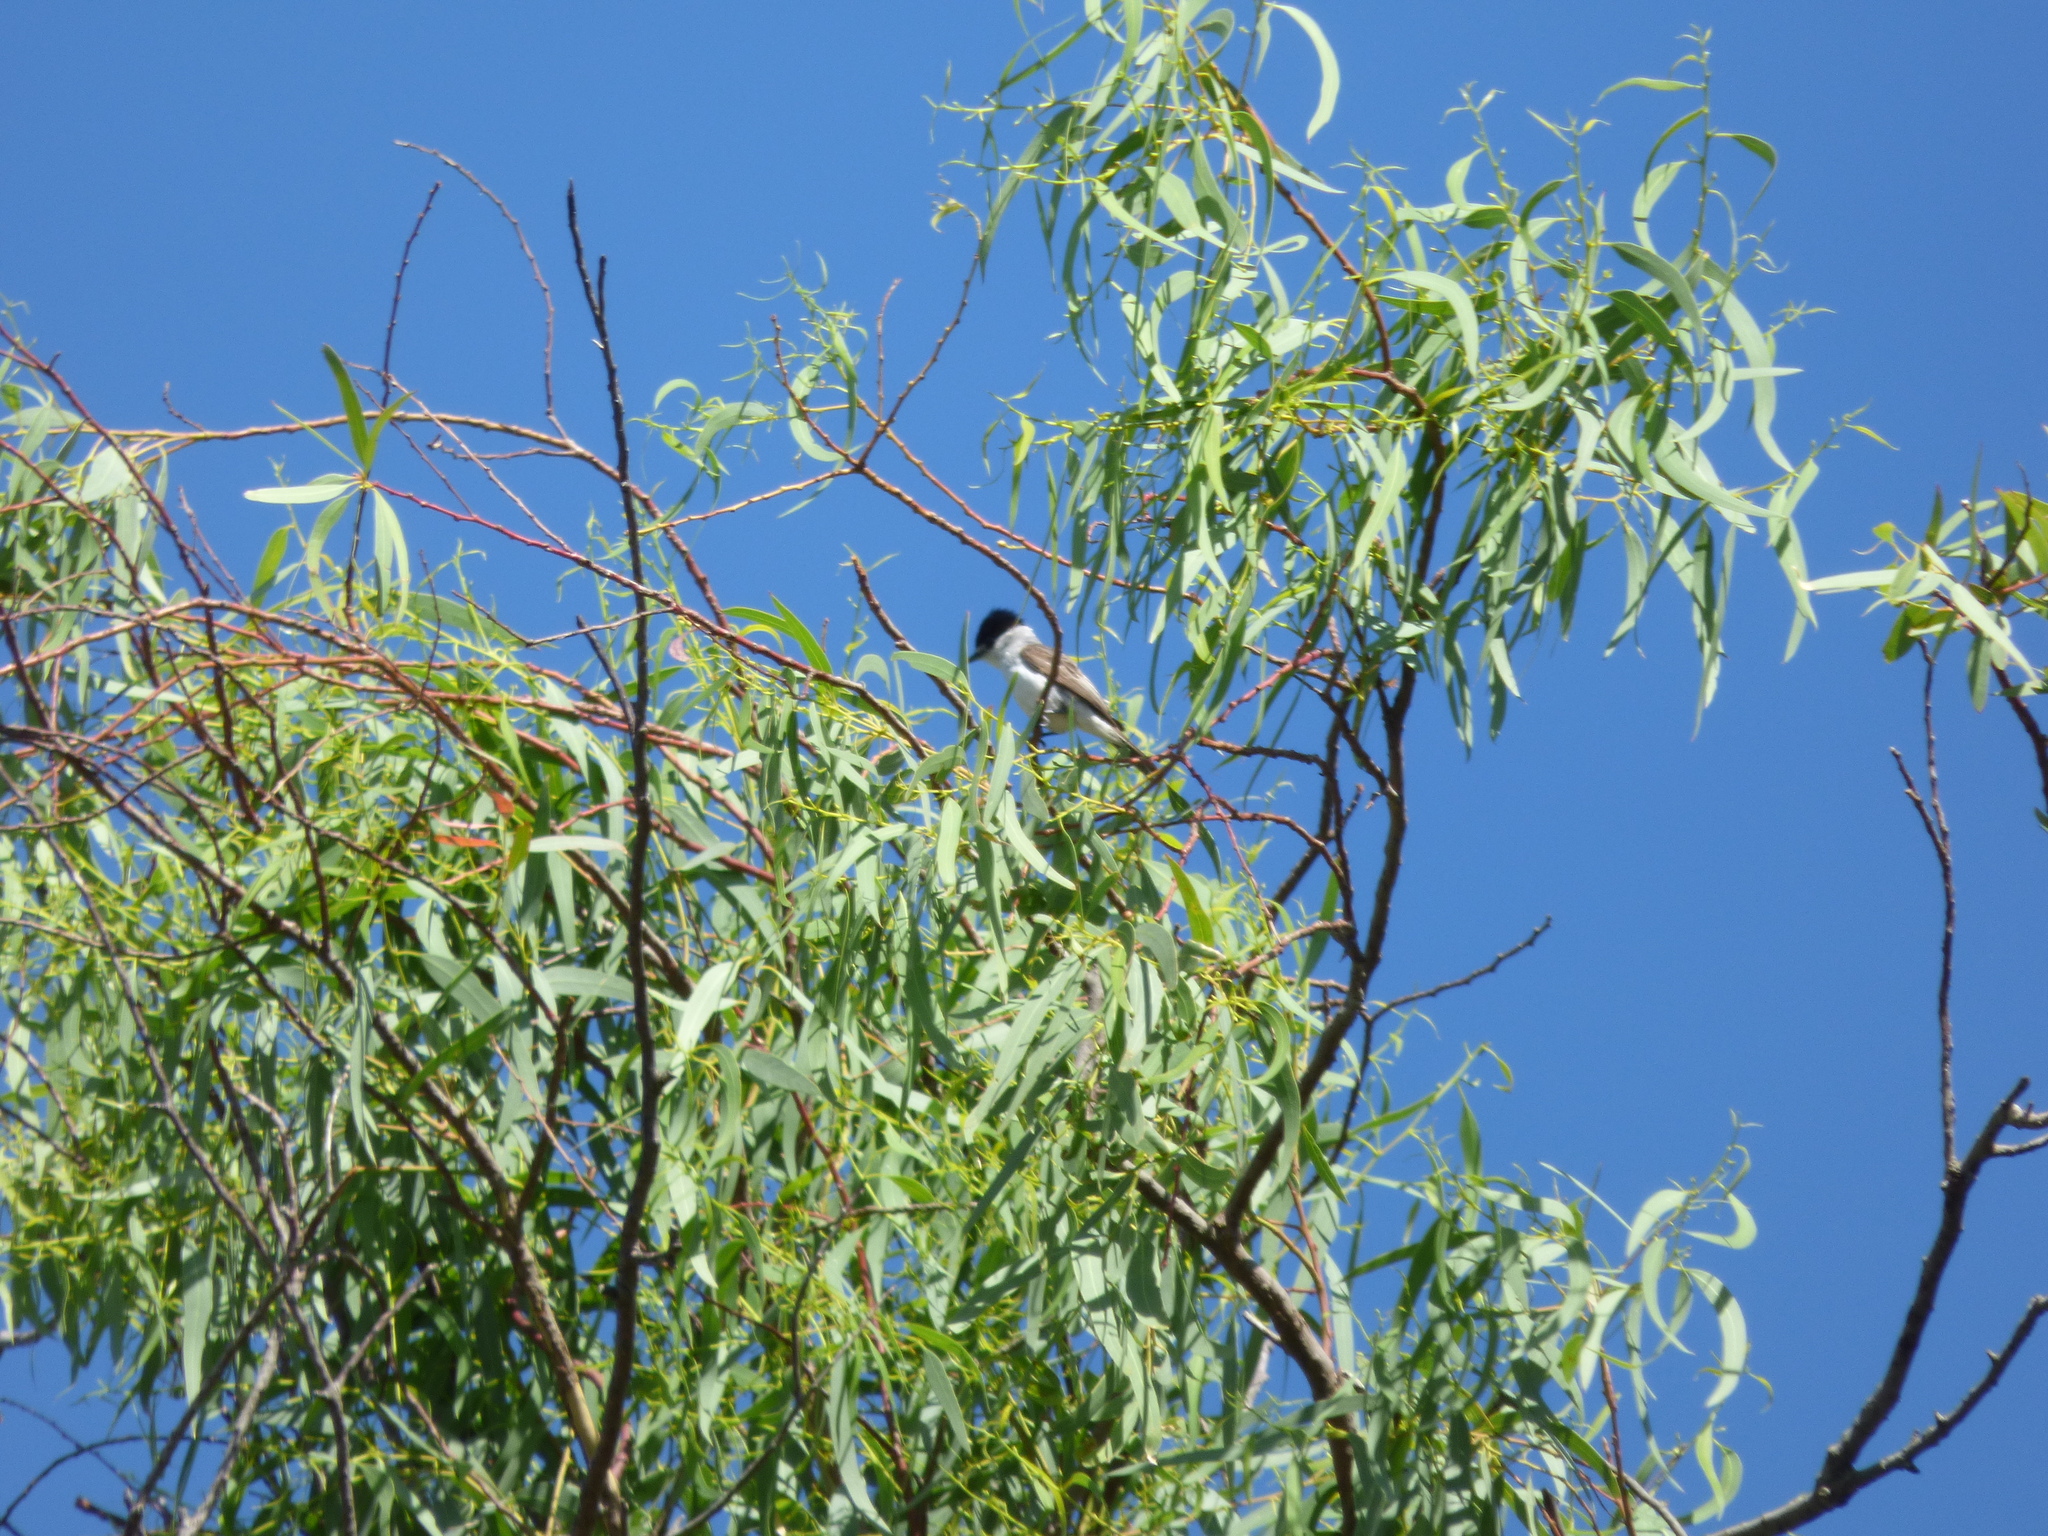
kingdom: Animalia
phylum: Chordata
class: Aves
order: Passeriformes
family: Cotingidae
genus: Xenopsaris
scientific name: Xenopsaris albinucha
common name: White-naped xenopsaris
